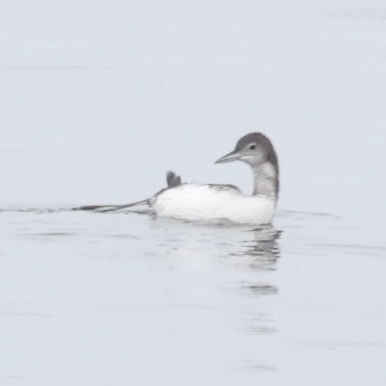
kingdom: Animalia
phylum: Chordata
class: Aves
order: Gaviiformes
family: Gaviidae
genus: Gavia
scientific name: Gavia immer
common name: Common loon
